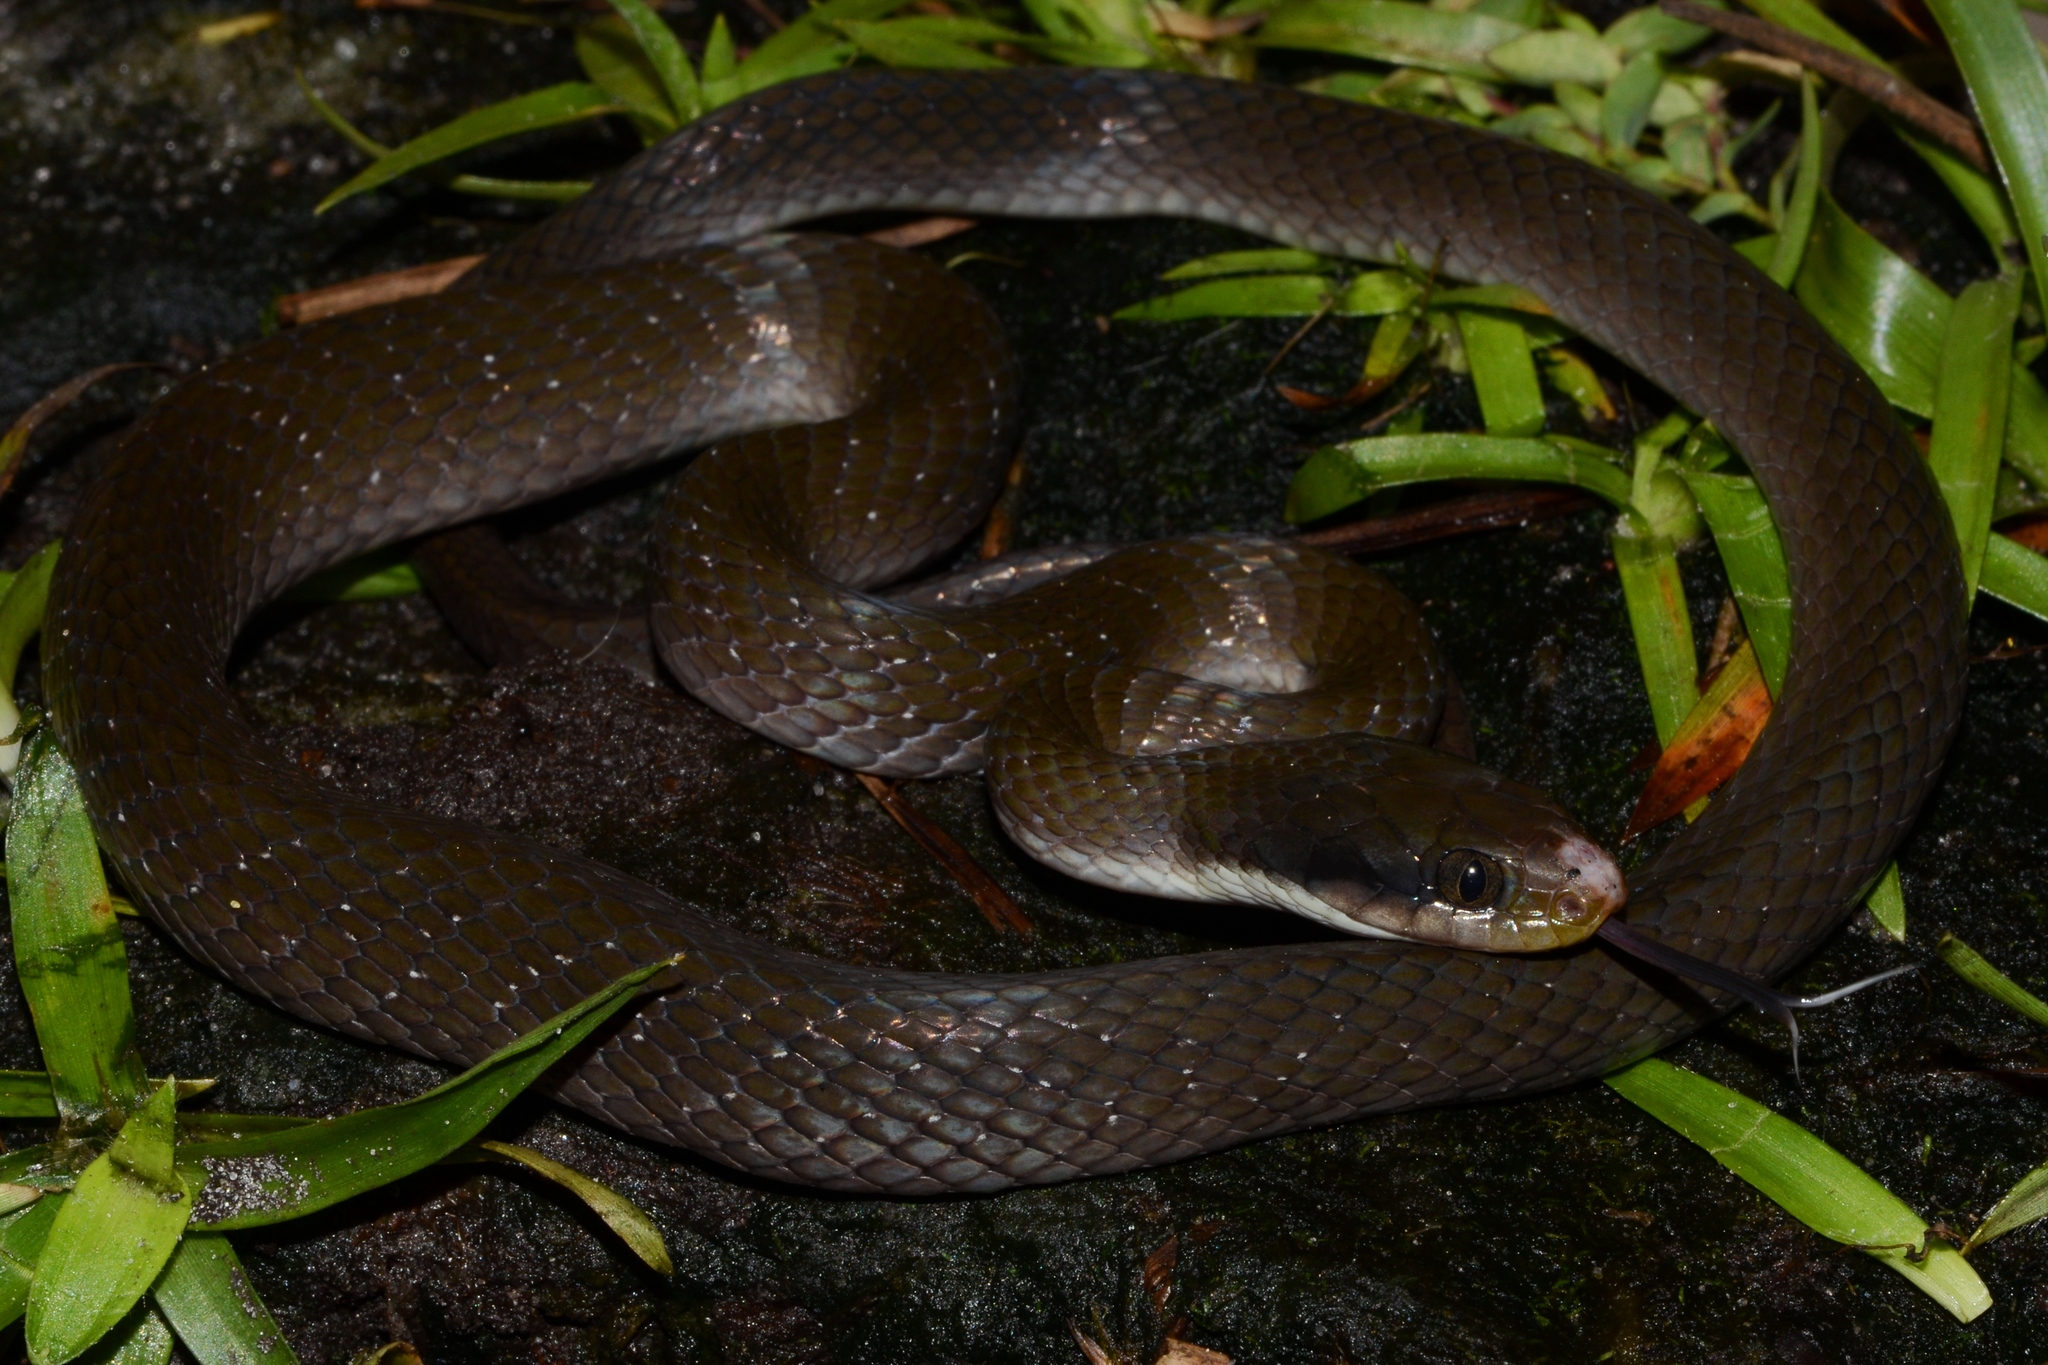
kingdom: Animalia
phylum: Chordata
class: Squamata
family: Colubridae
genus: Crotaphopeltis
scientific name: Crotaphopeltis hotamboeia
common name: Red-lipped snake
